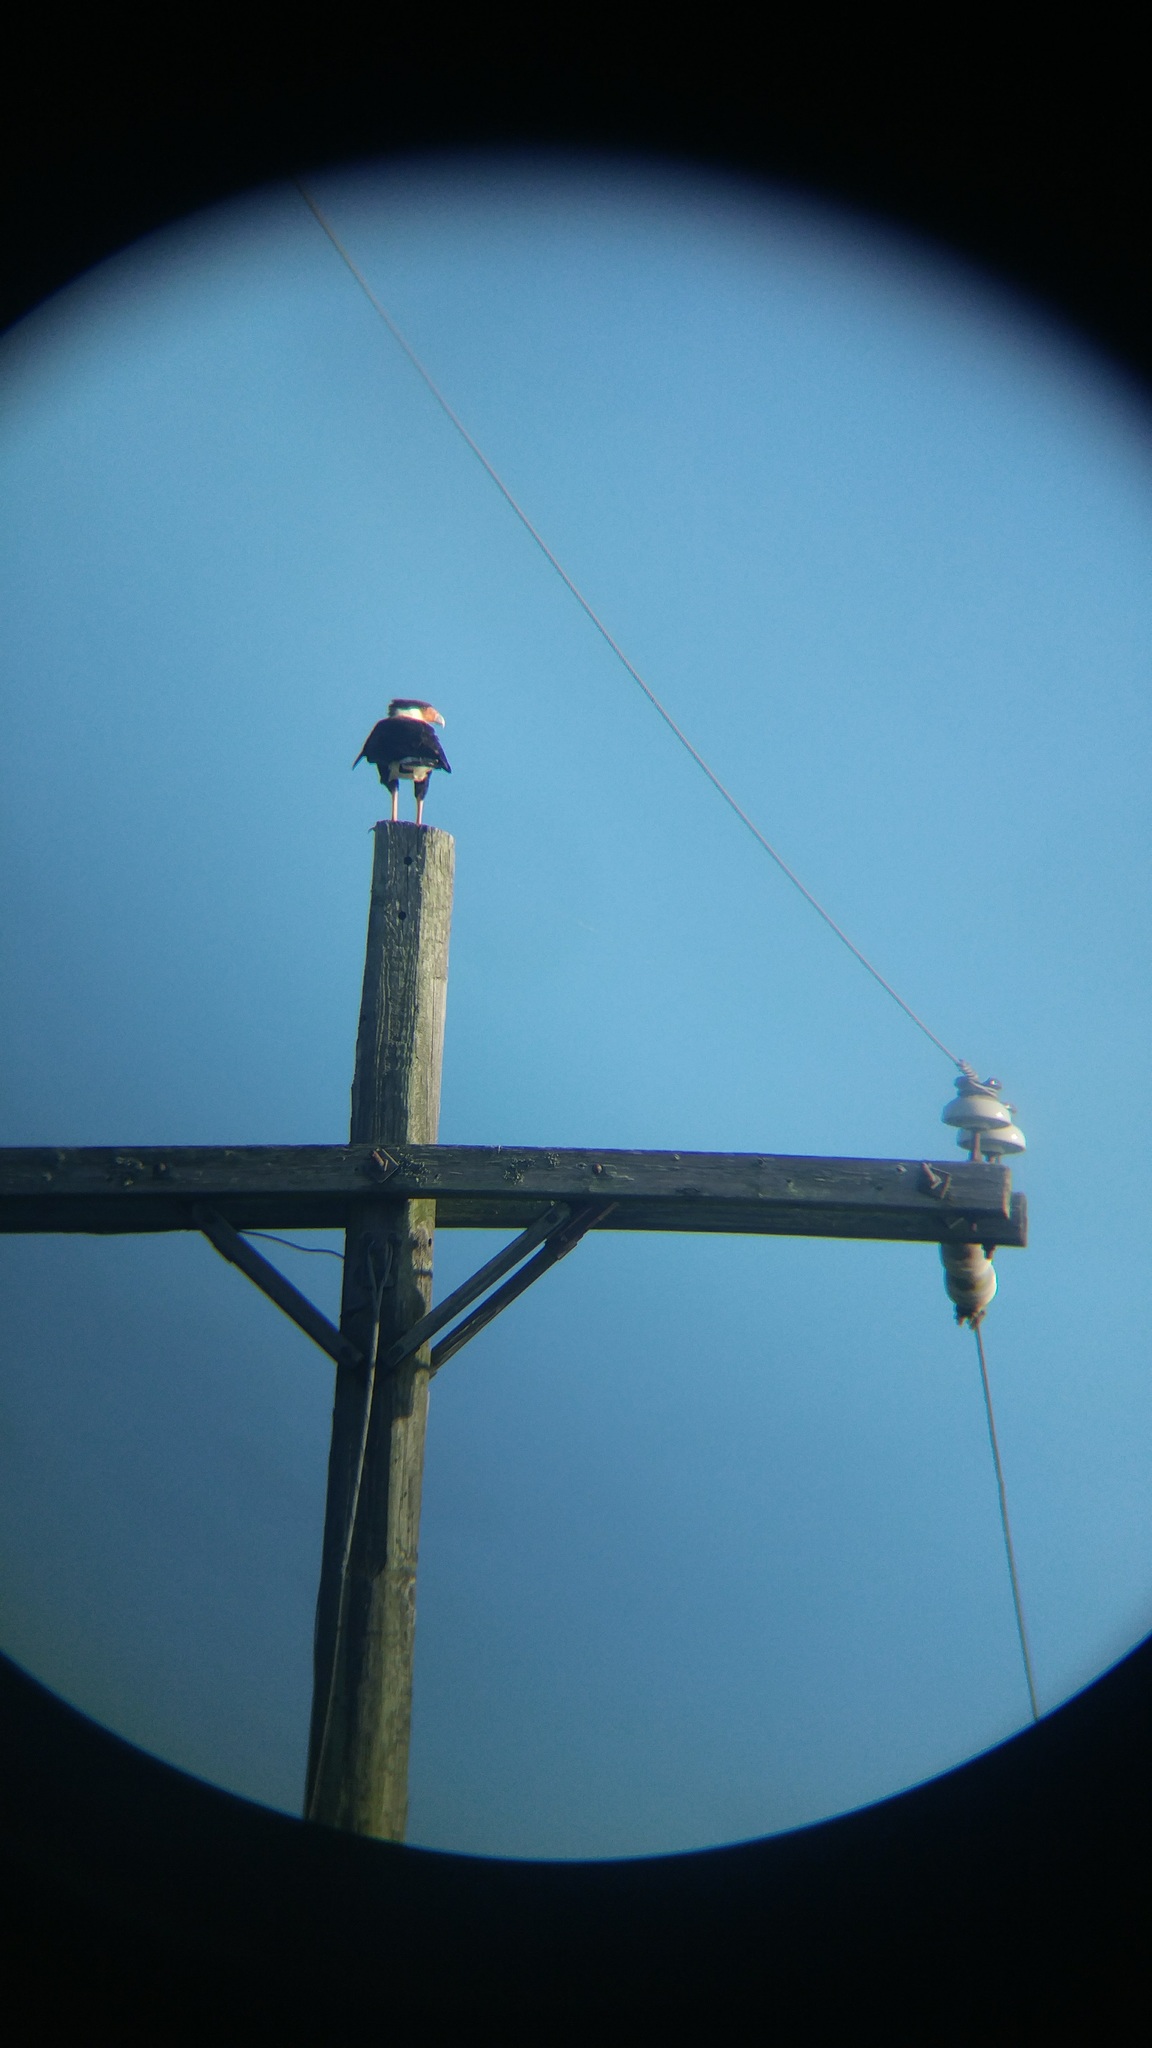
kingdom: Animalia
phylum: Chordata
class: Aves
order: Falconiformes
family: Falconidae
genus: Caracara
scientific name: Caracara plancus
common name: Southern caracara
